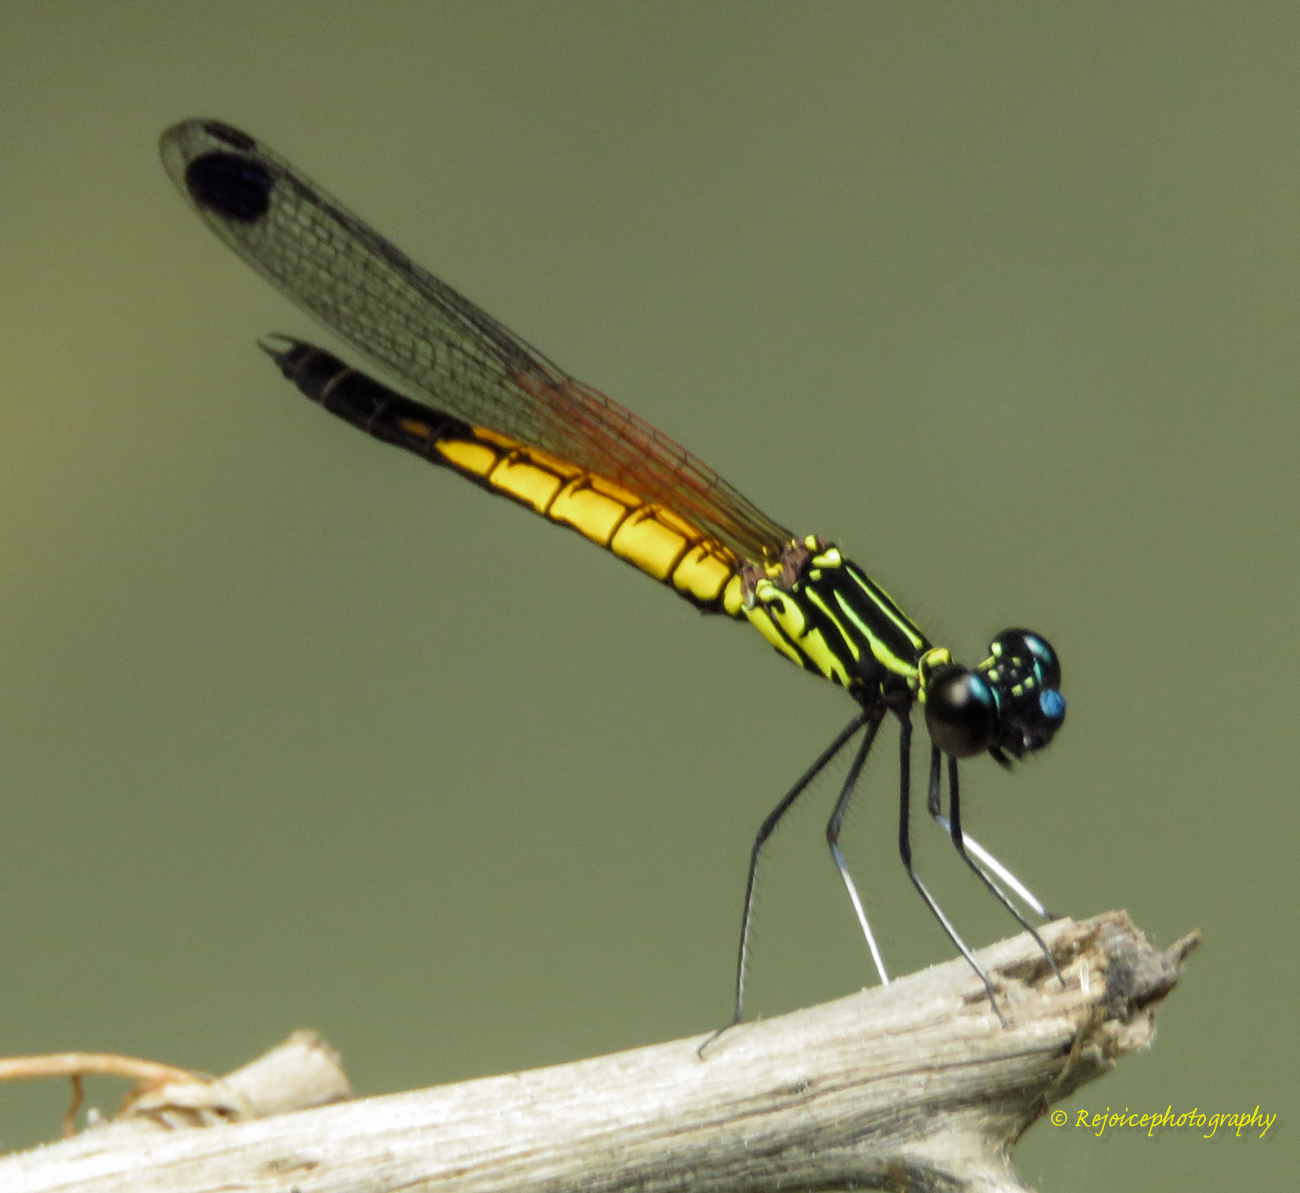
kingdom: Animalia
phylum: Arthropoda
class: Insecta
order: Odonata
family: Chlorocyphidae
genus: Libellago
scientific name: Libellago lineata
